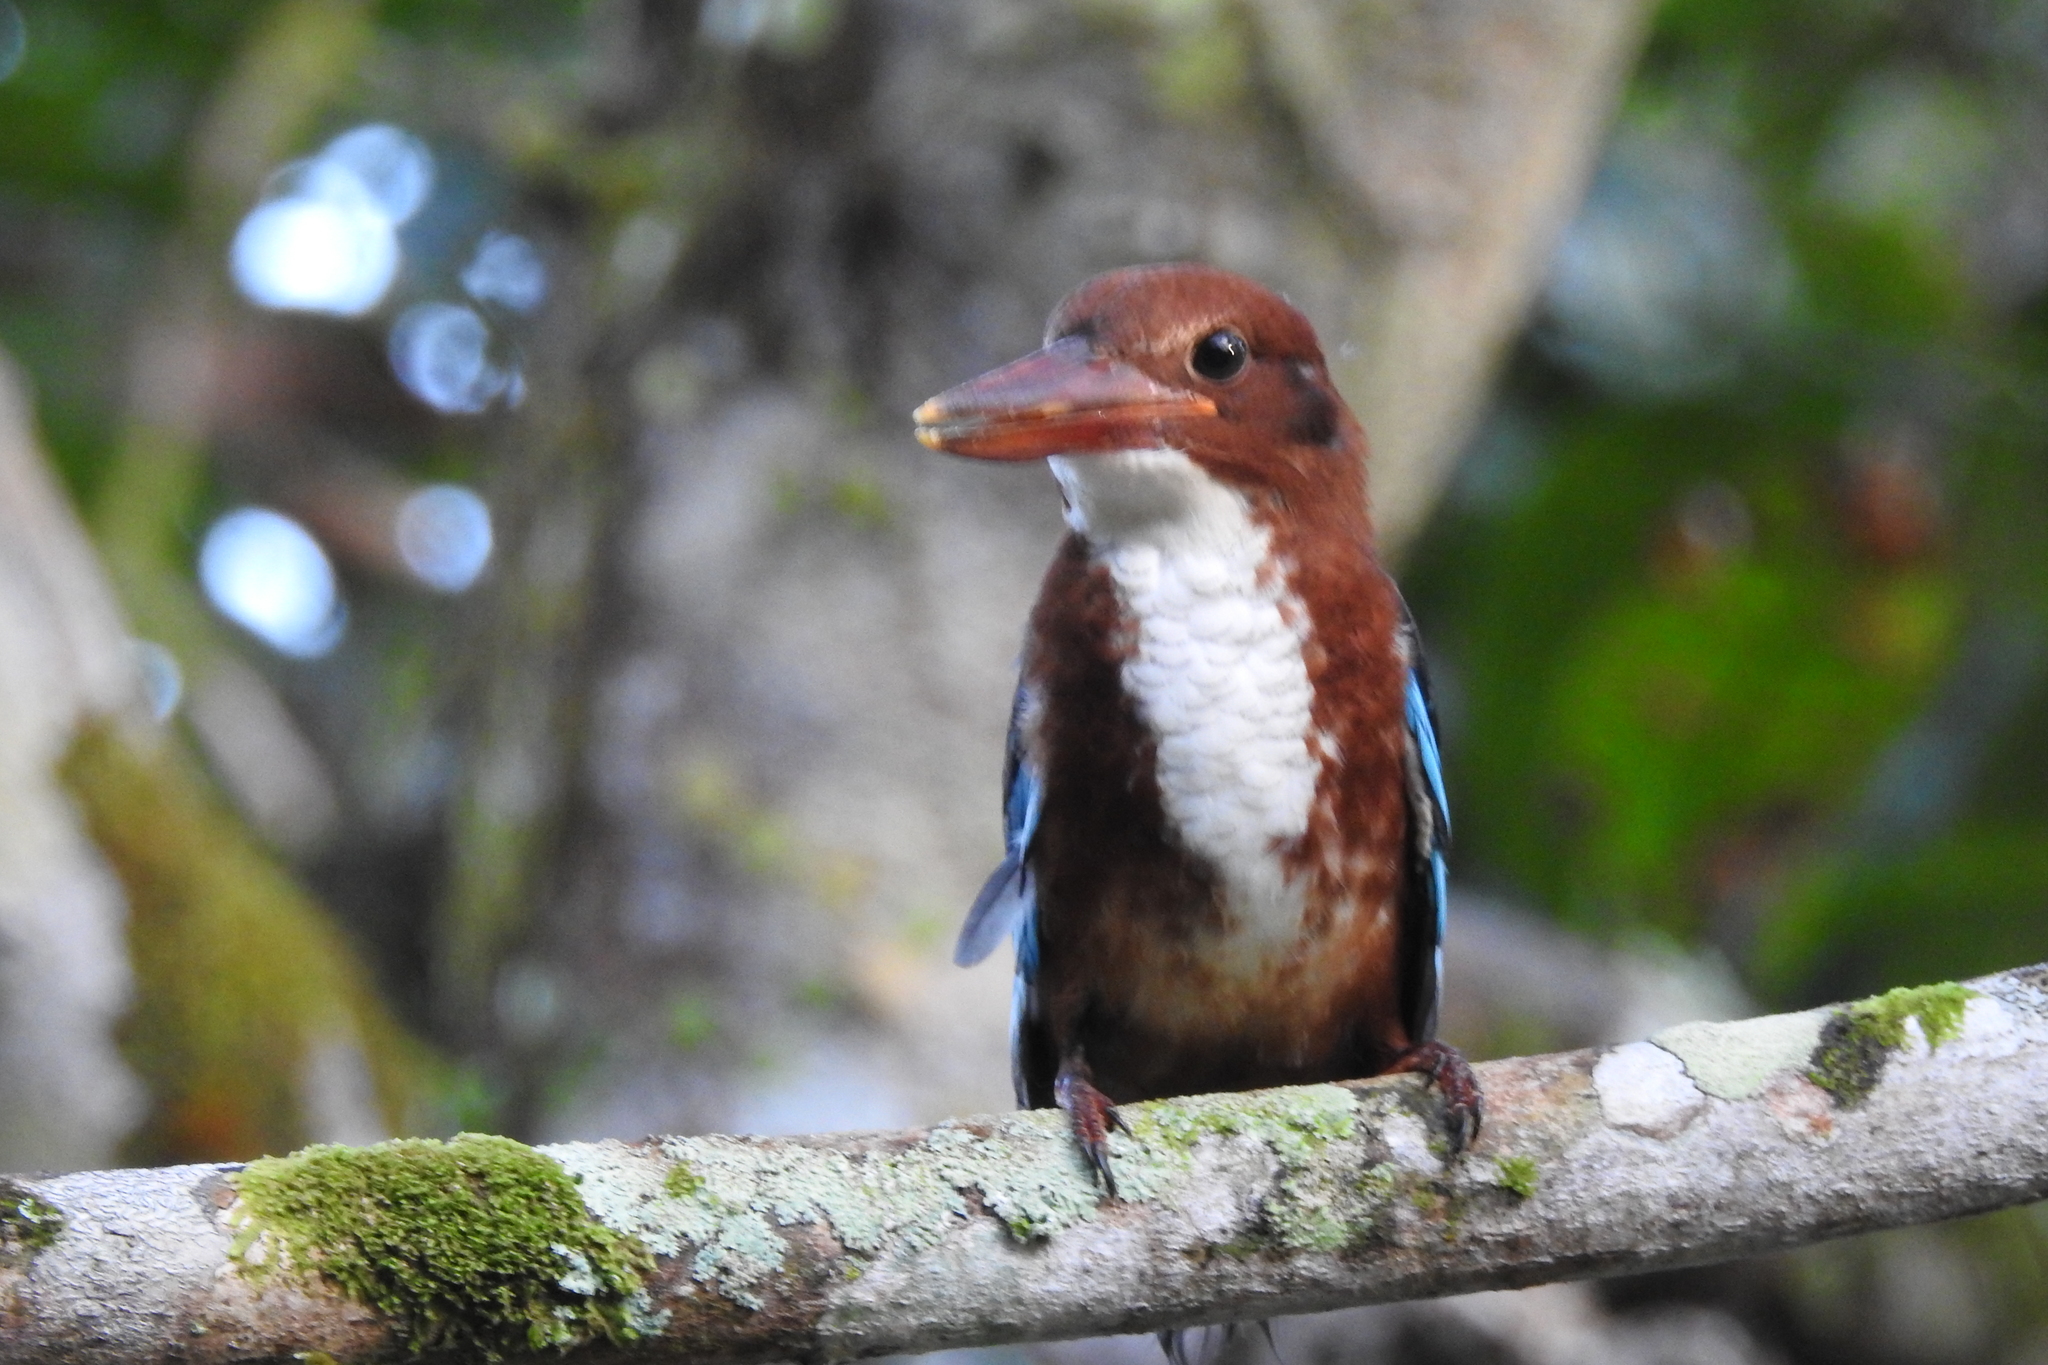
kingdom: Animalia
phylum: Chordata
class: Aves
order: Coraciiformes
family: Alcedinidae
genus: Halcyon
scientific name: Halcyon smyrnensis
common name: White-throated kingfisher
